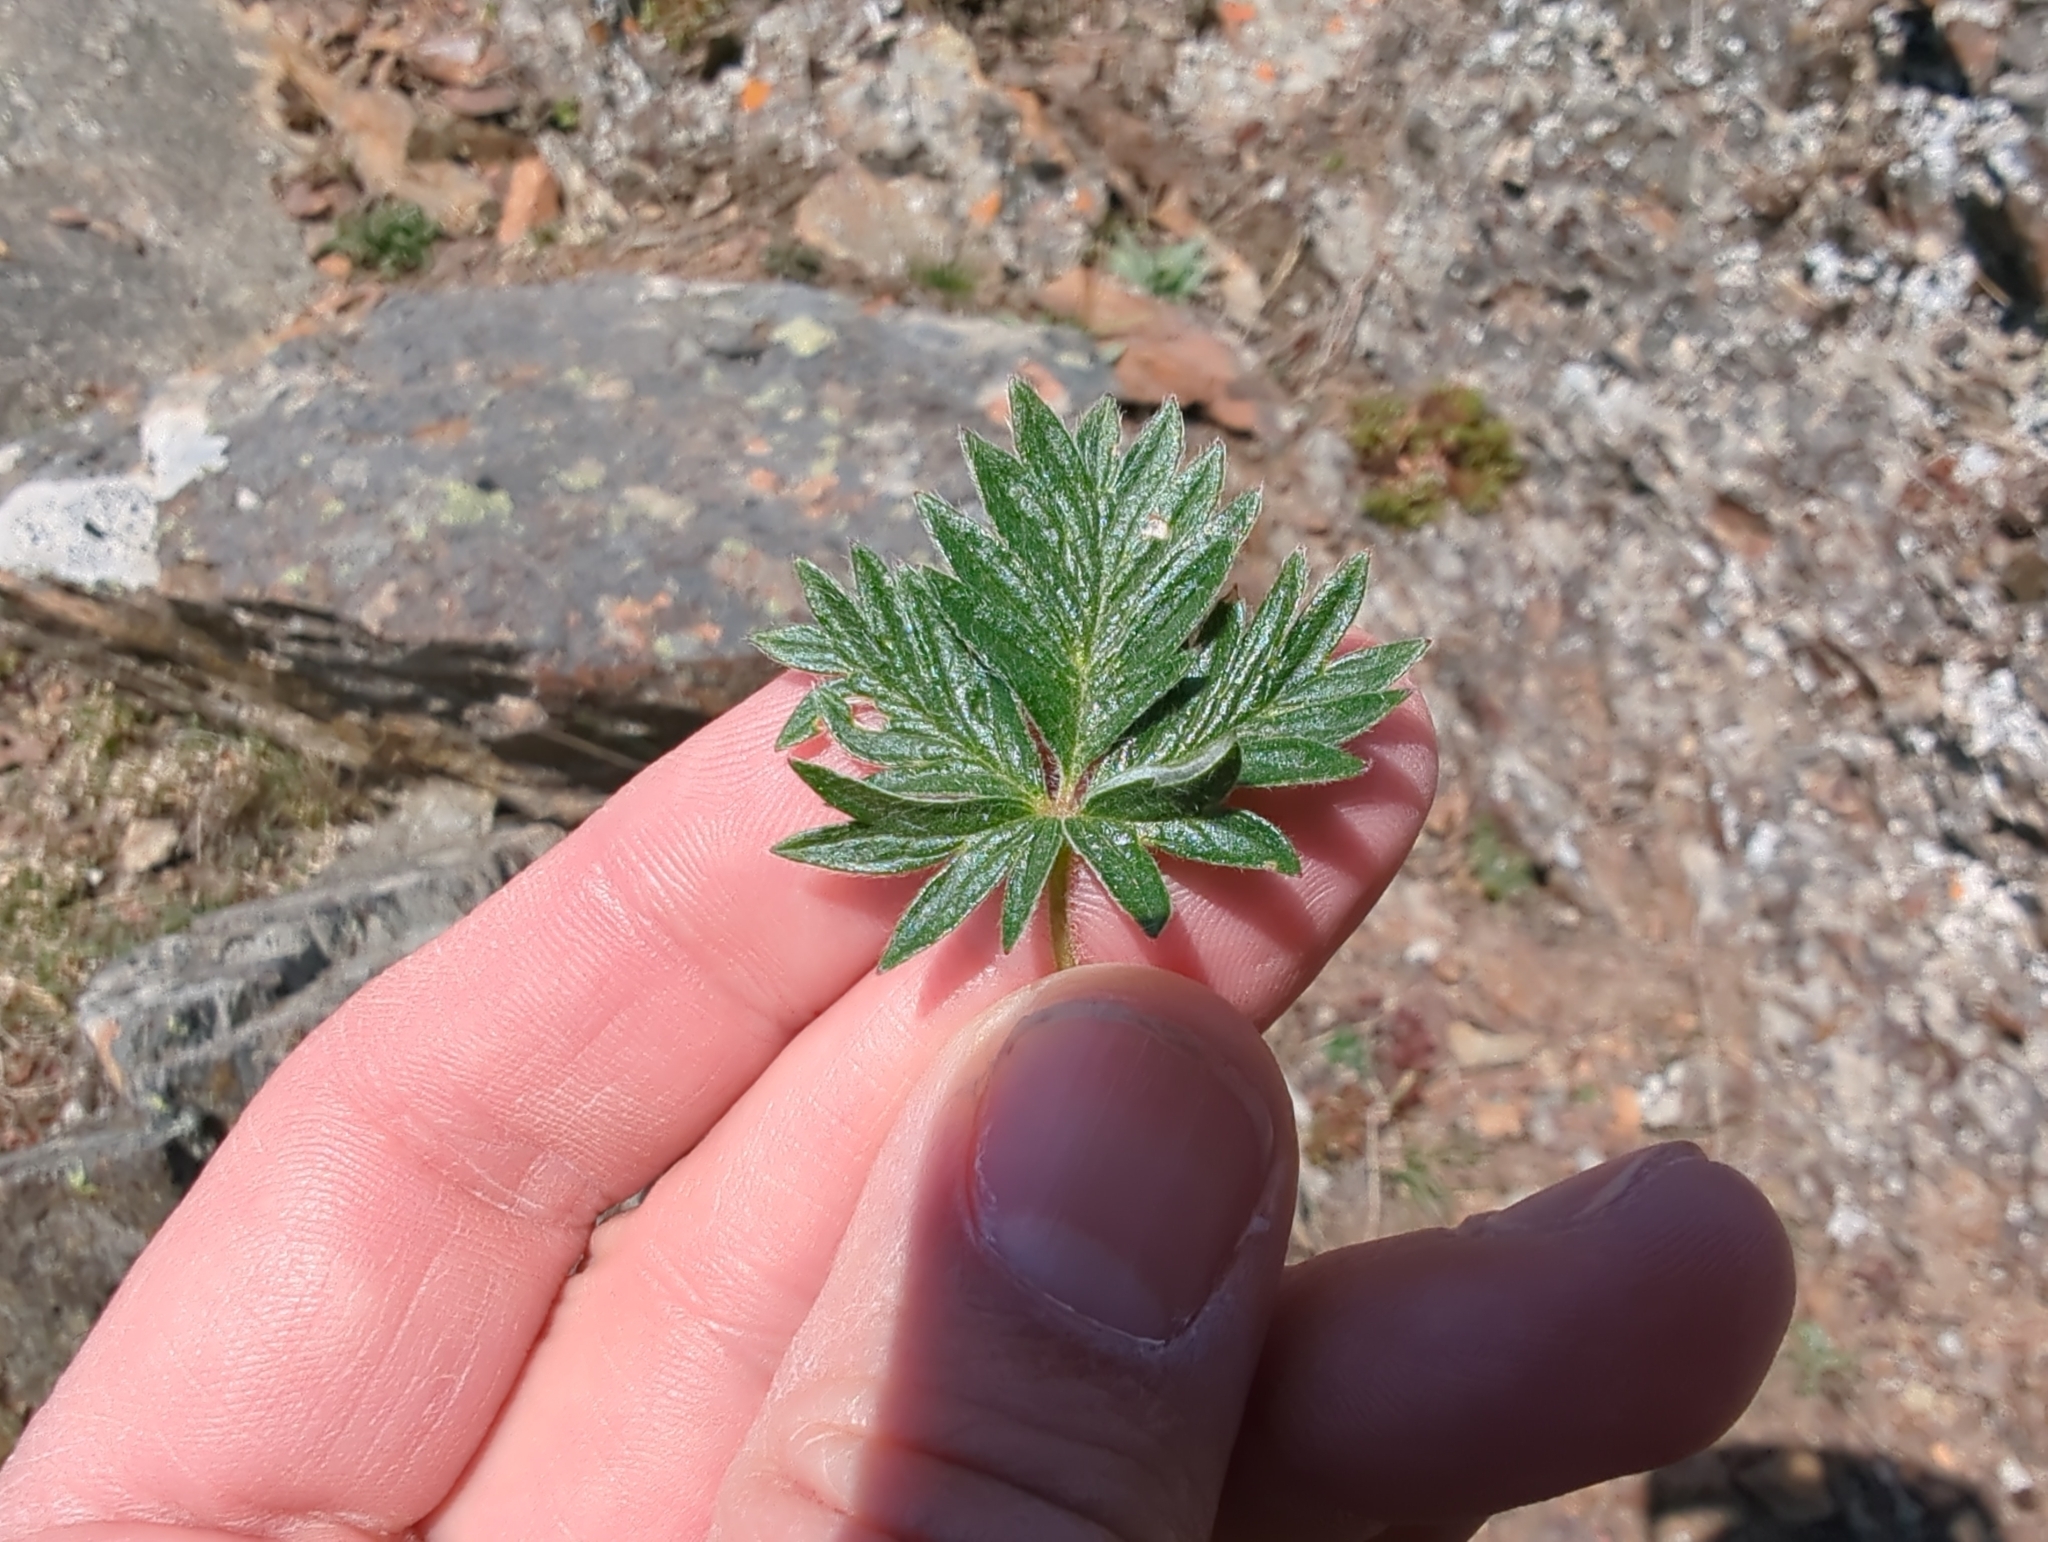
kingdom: Plantae
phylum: Tracheophyta
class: Magnoliopsida
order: Rosales
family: Rosaceae
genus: Potentilla
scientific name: Potentilla rubricaulis
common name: Red-stemmed cinquefoil
